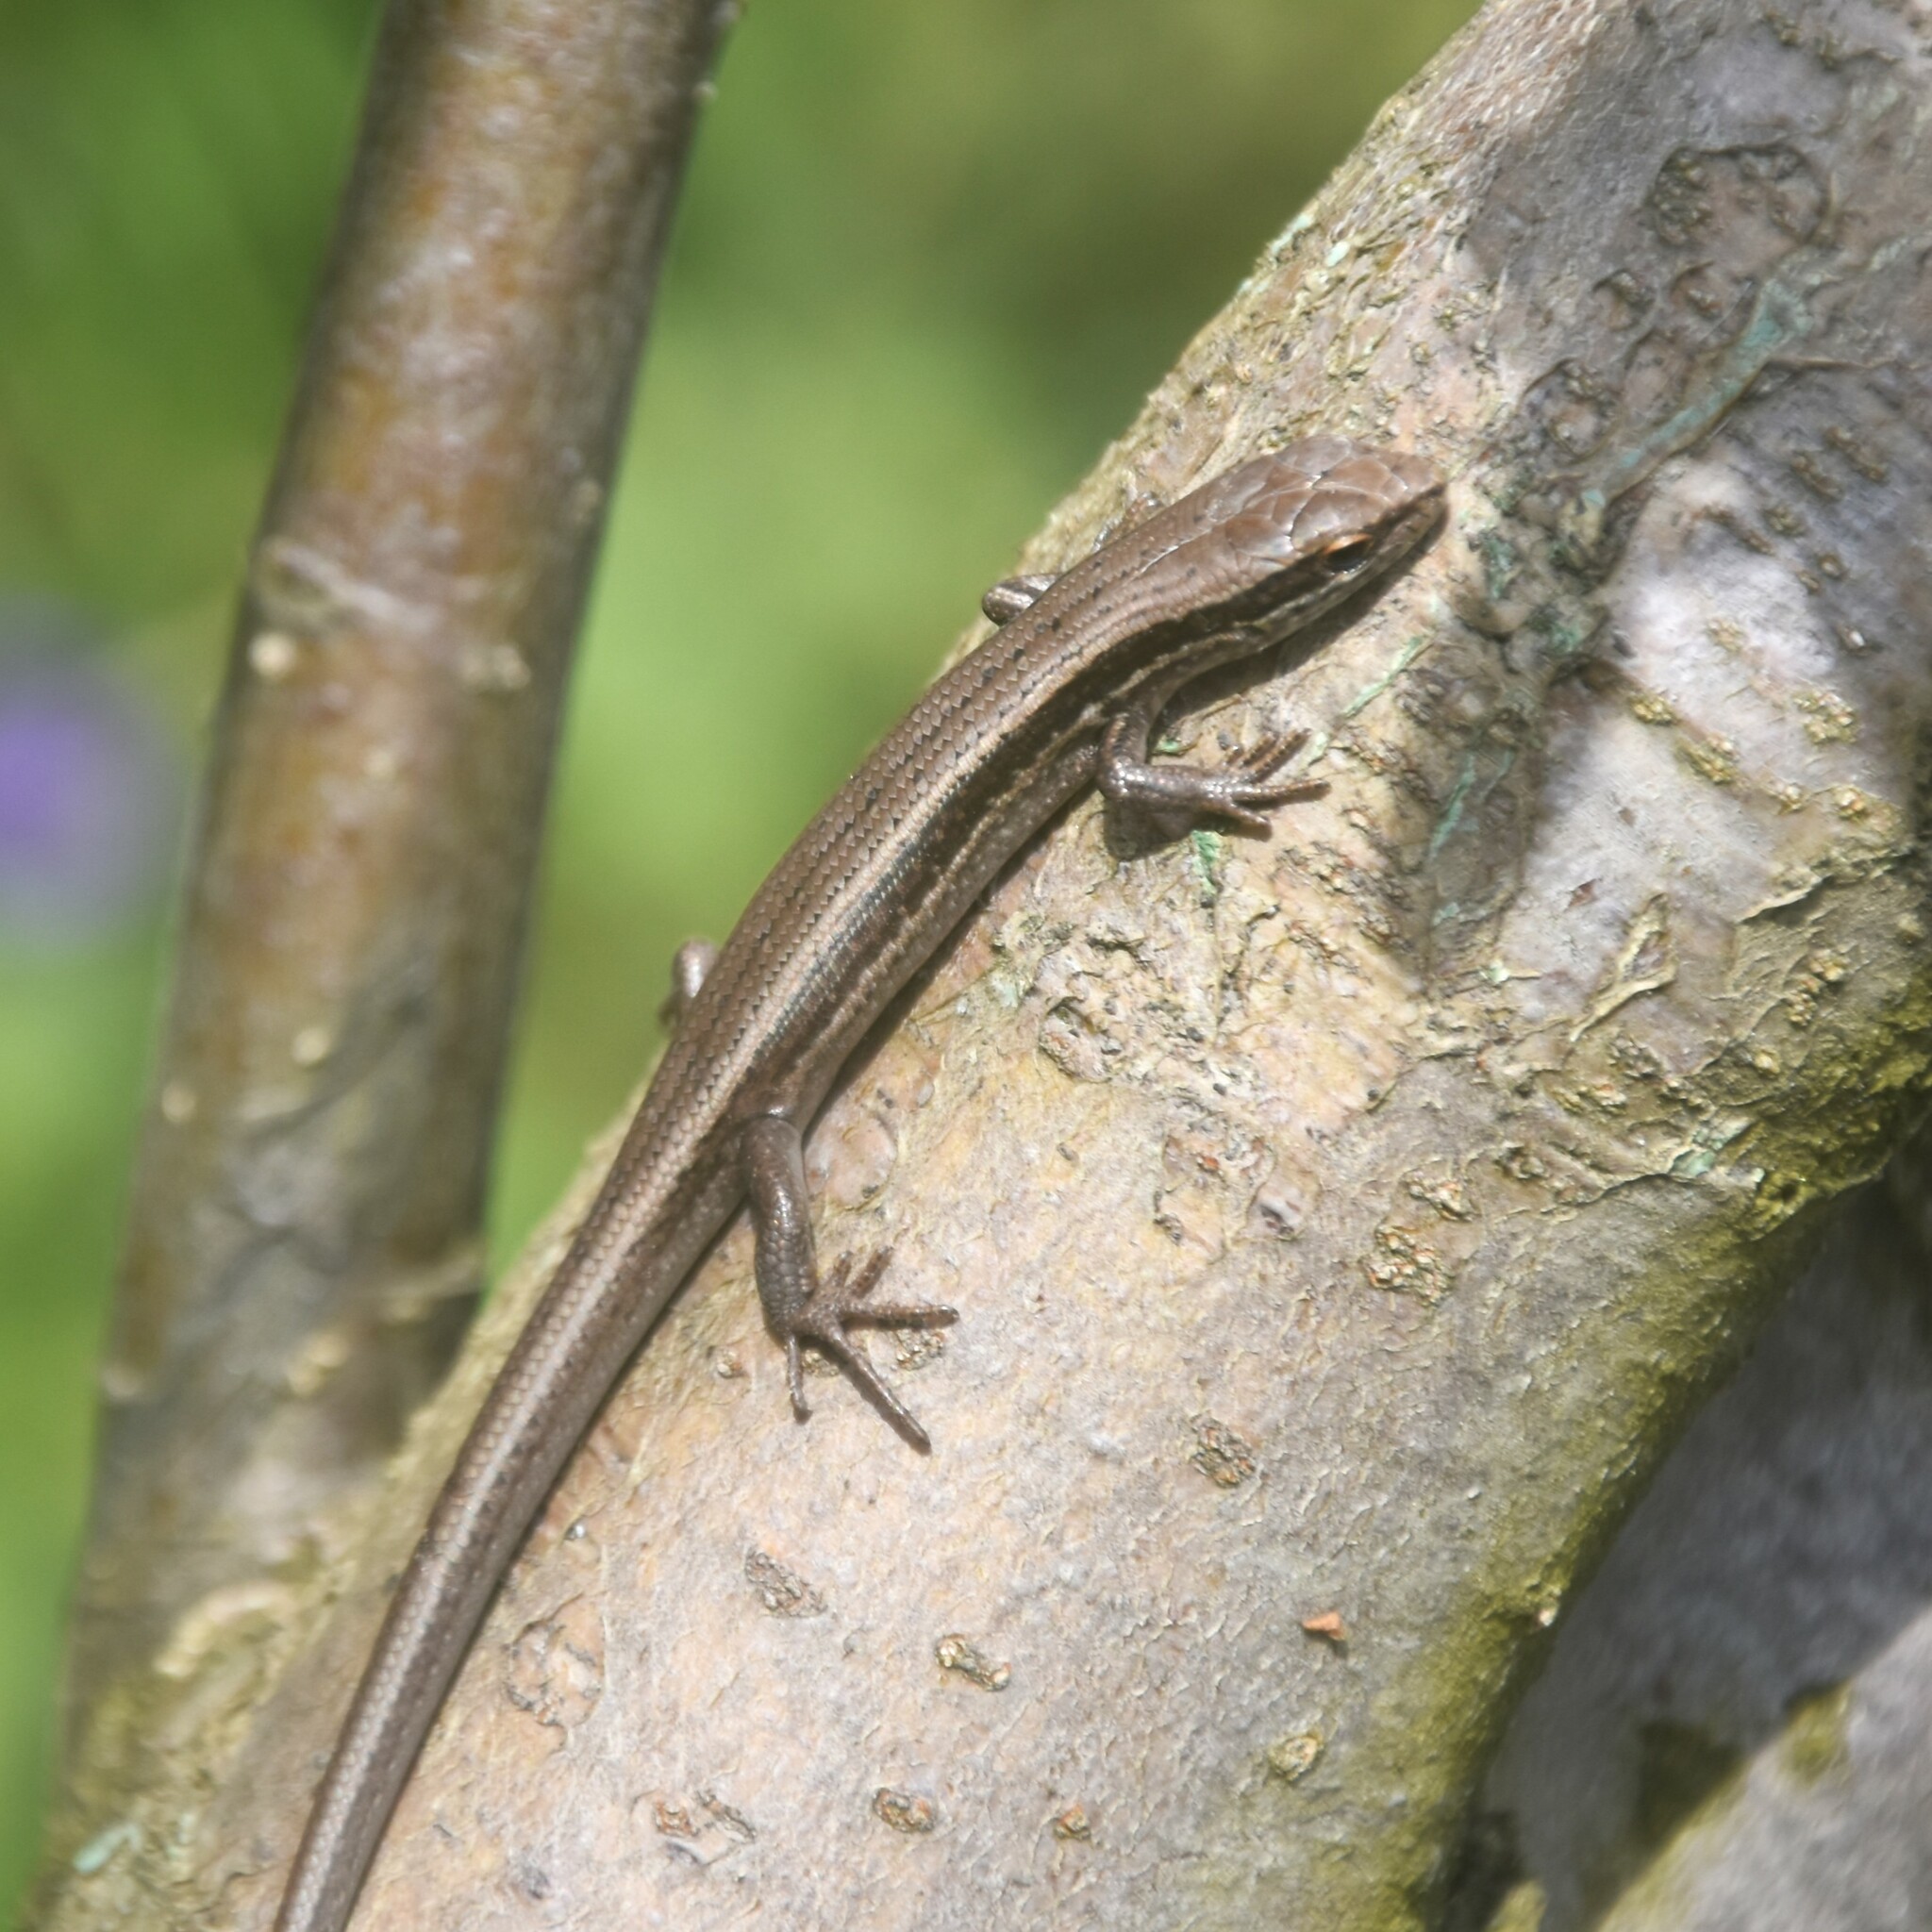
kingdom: Animalia
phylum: Chordata
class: Squamata
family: Scincidae
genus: Asymblepharus
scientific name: Asymblepharus himalayanus
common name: Himalaya ground skink
